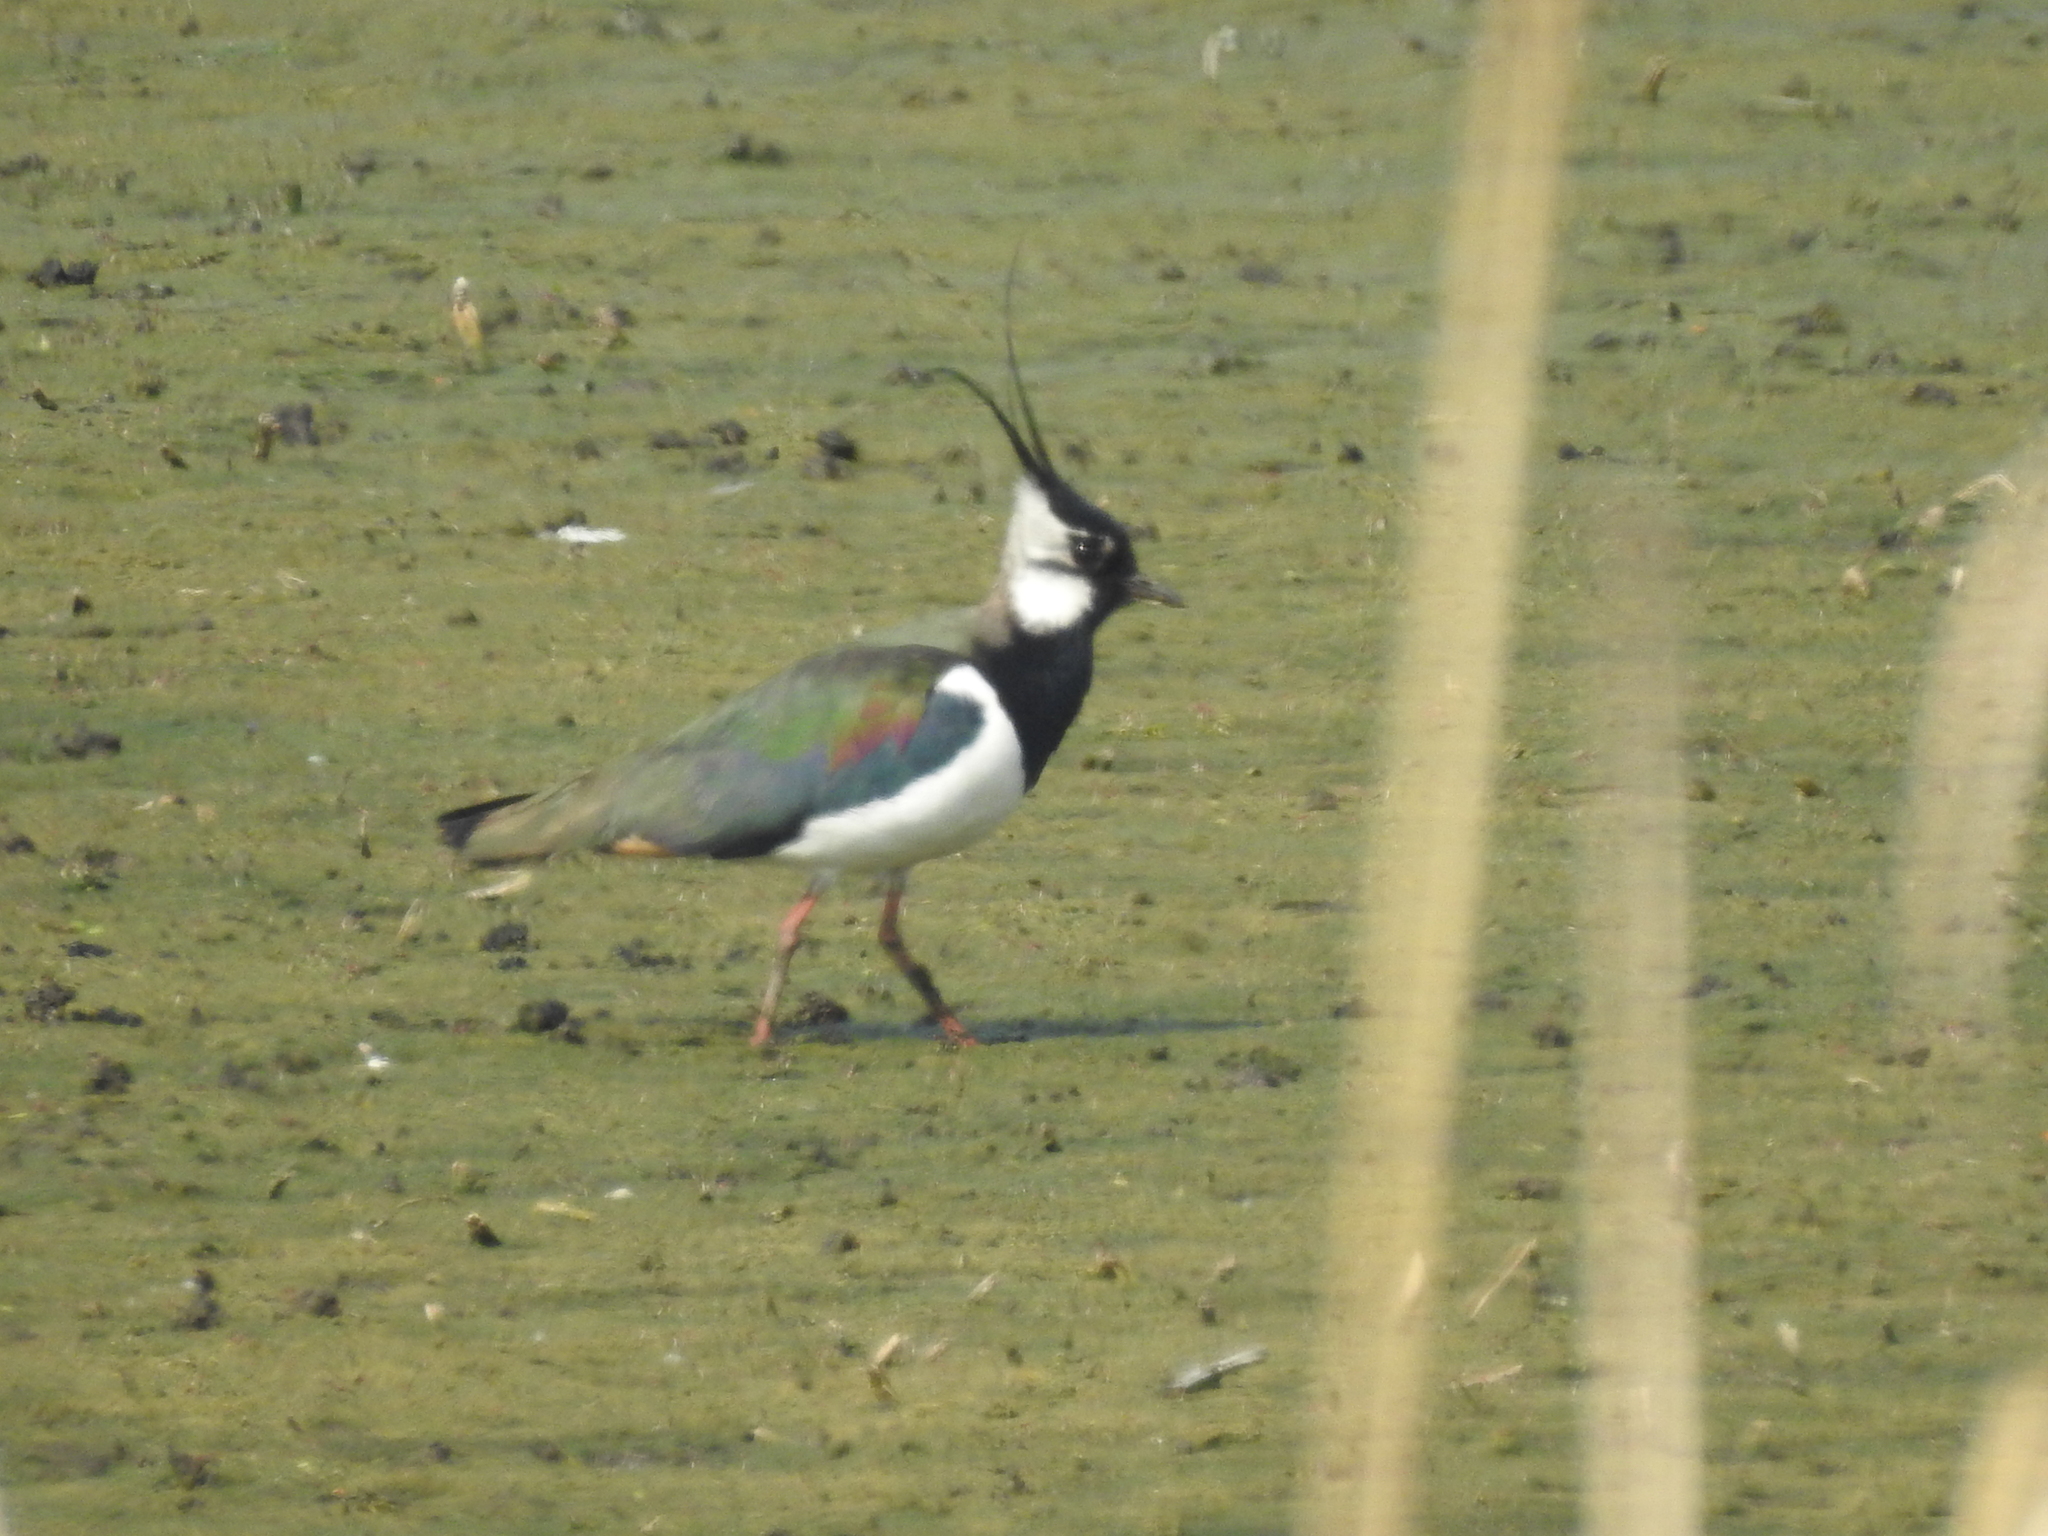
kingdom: Animalia
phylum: Chordata
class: Aves
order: Charadriiformes
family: Charadriidae
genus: Vanellus
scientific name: Vanellus vanellus
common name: Northern lapwing
